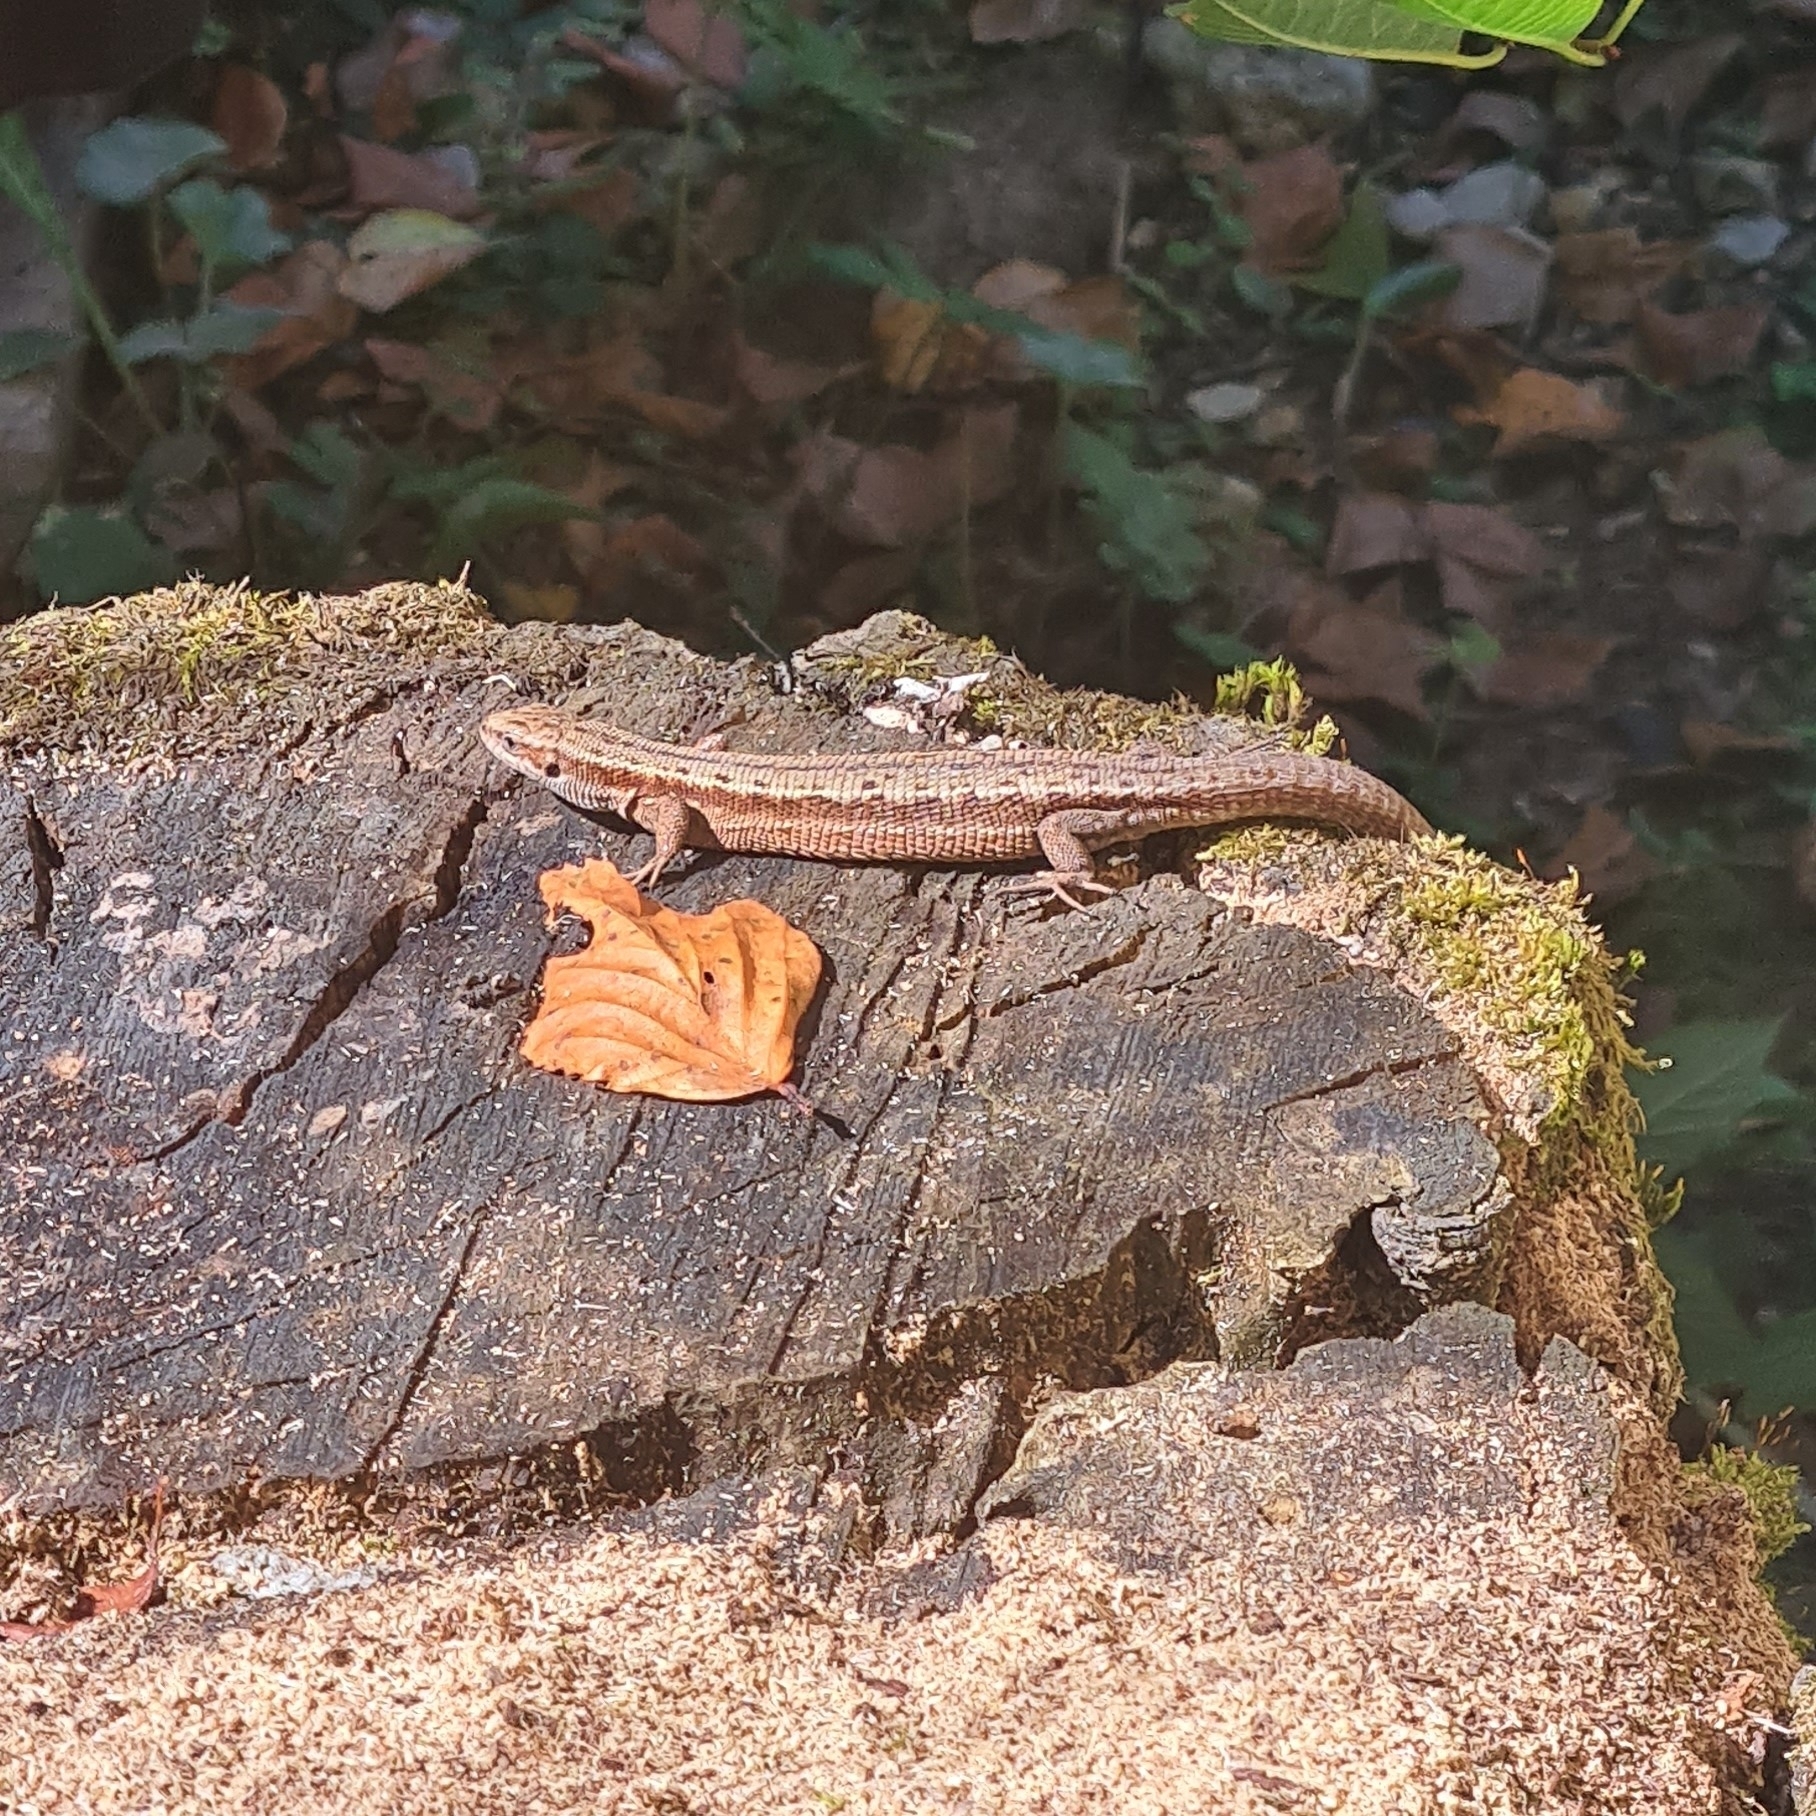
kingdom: Animalia
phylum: Chordata
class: Squamata
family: Lacertidae
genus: Zootoca
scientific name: Zootoca vivipara
